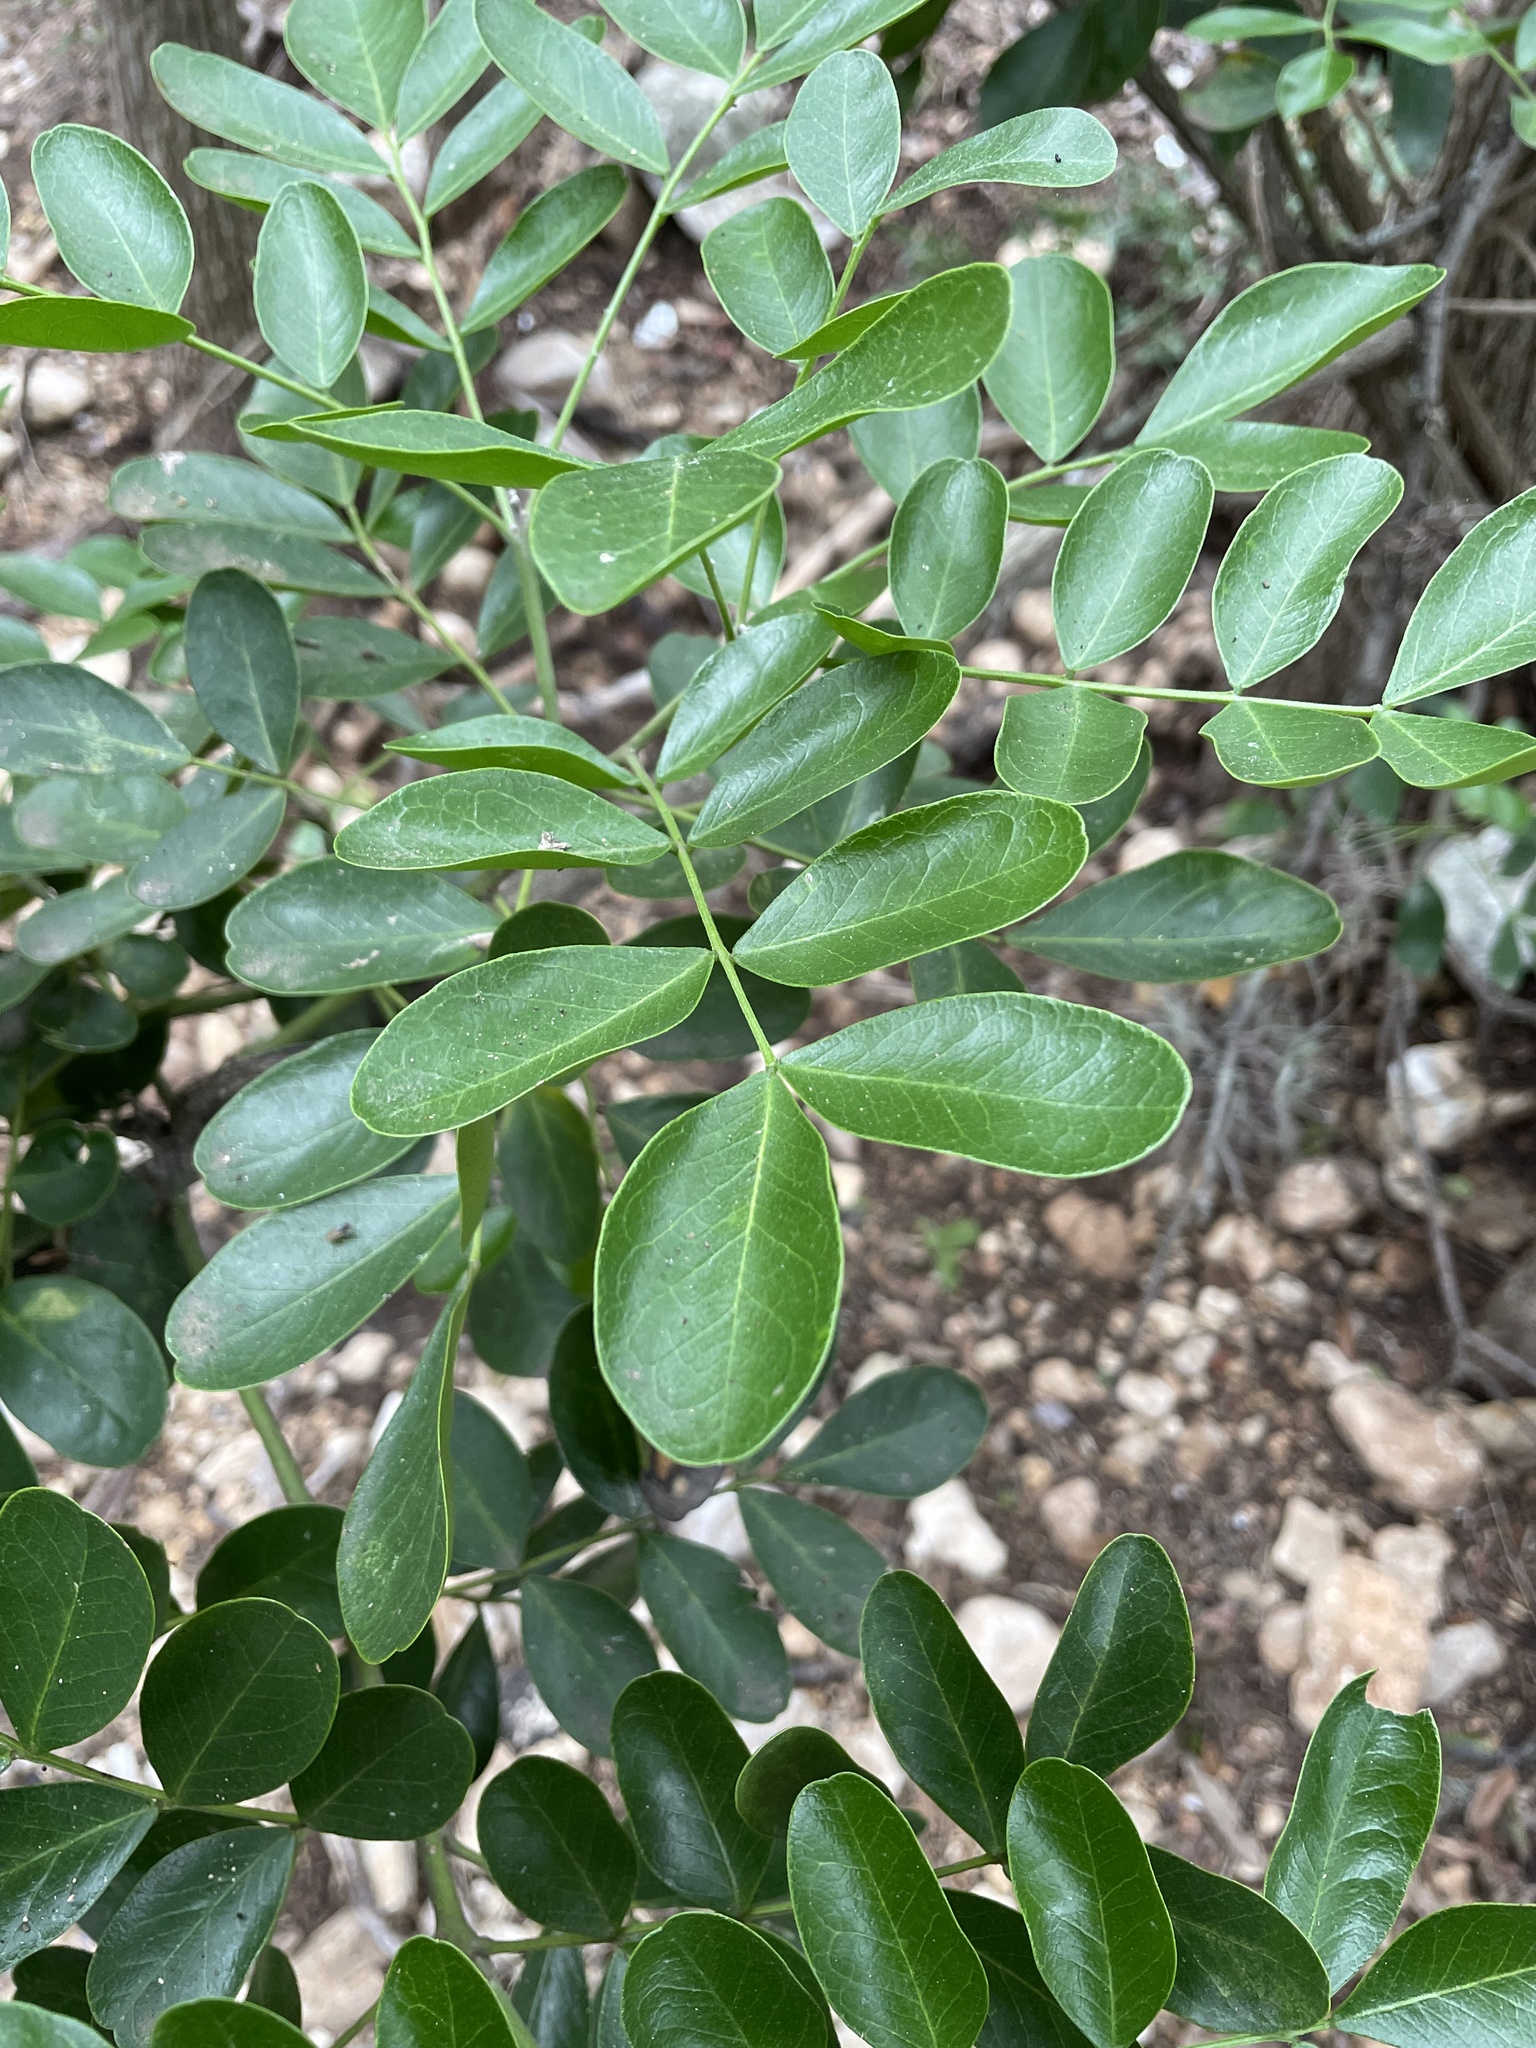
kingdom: Plantae
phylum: Tracheophyta
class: Magnoliopsida
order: Fabales
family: Fabaceae
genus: Dermatophyllum
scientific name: Dermatophyllum secundiflorum
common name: Texas-mountain-laurel
